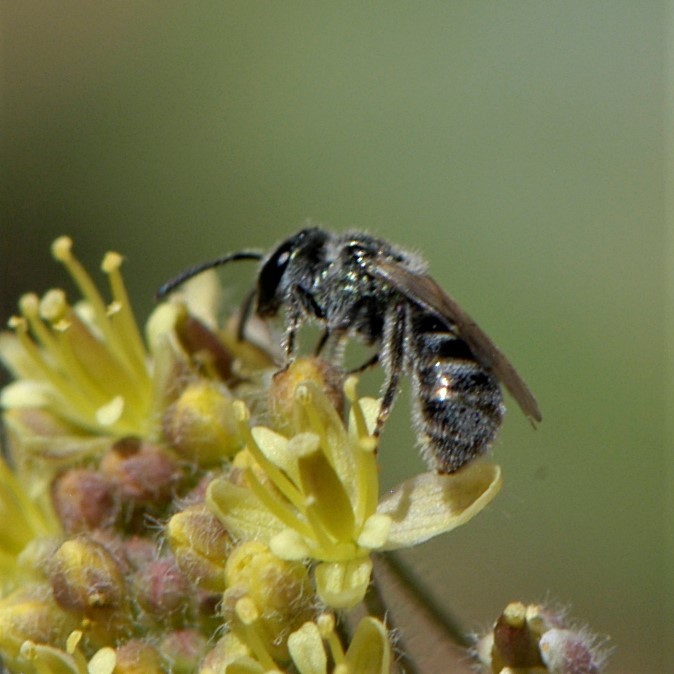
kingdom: Animalia
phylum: Arthropoda
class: Insecta
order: Hymenoptera
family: Halictidae
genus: Dialictus
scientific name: Dialictus
